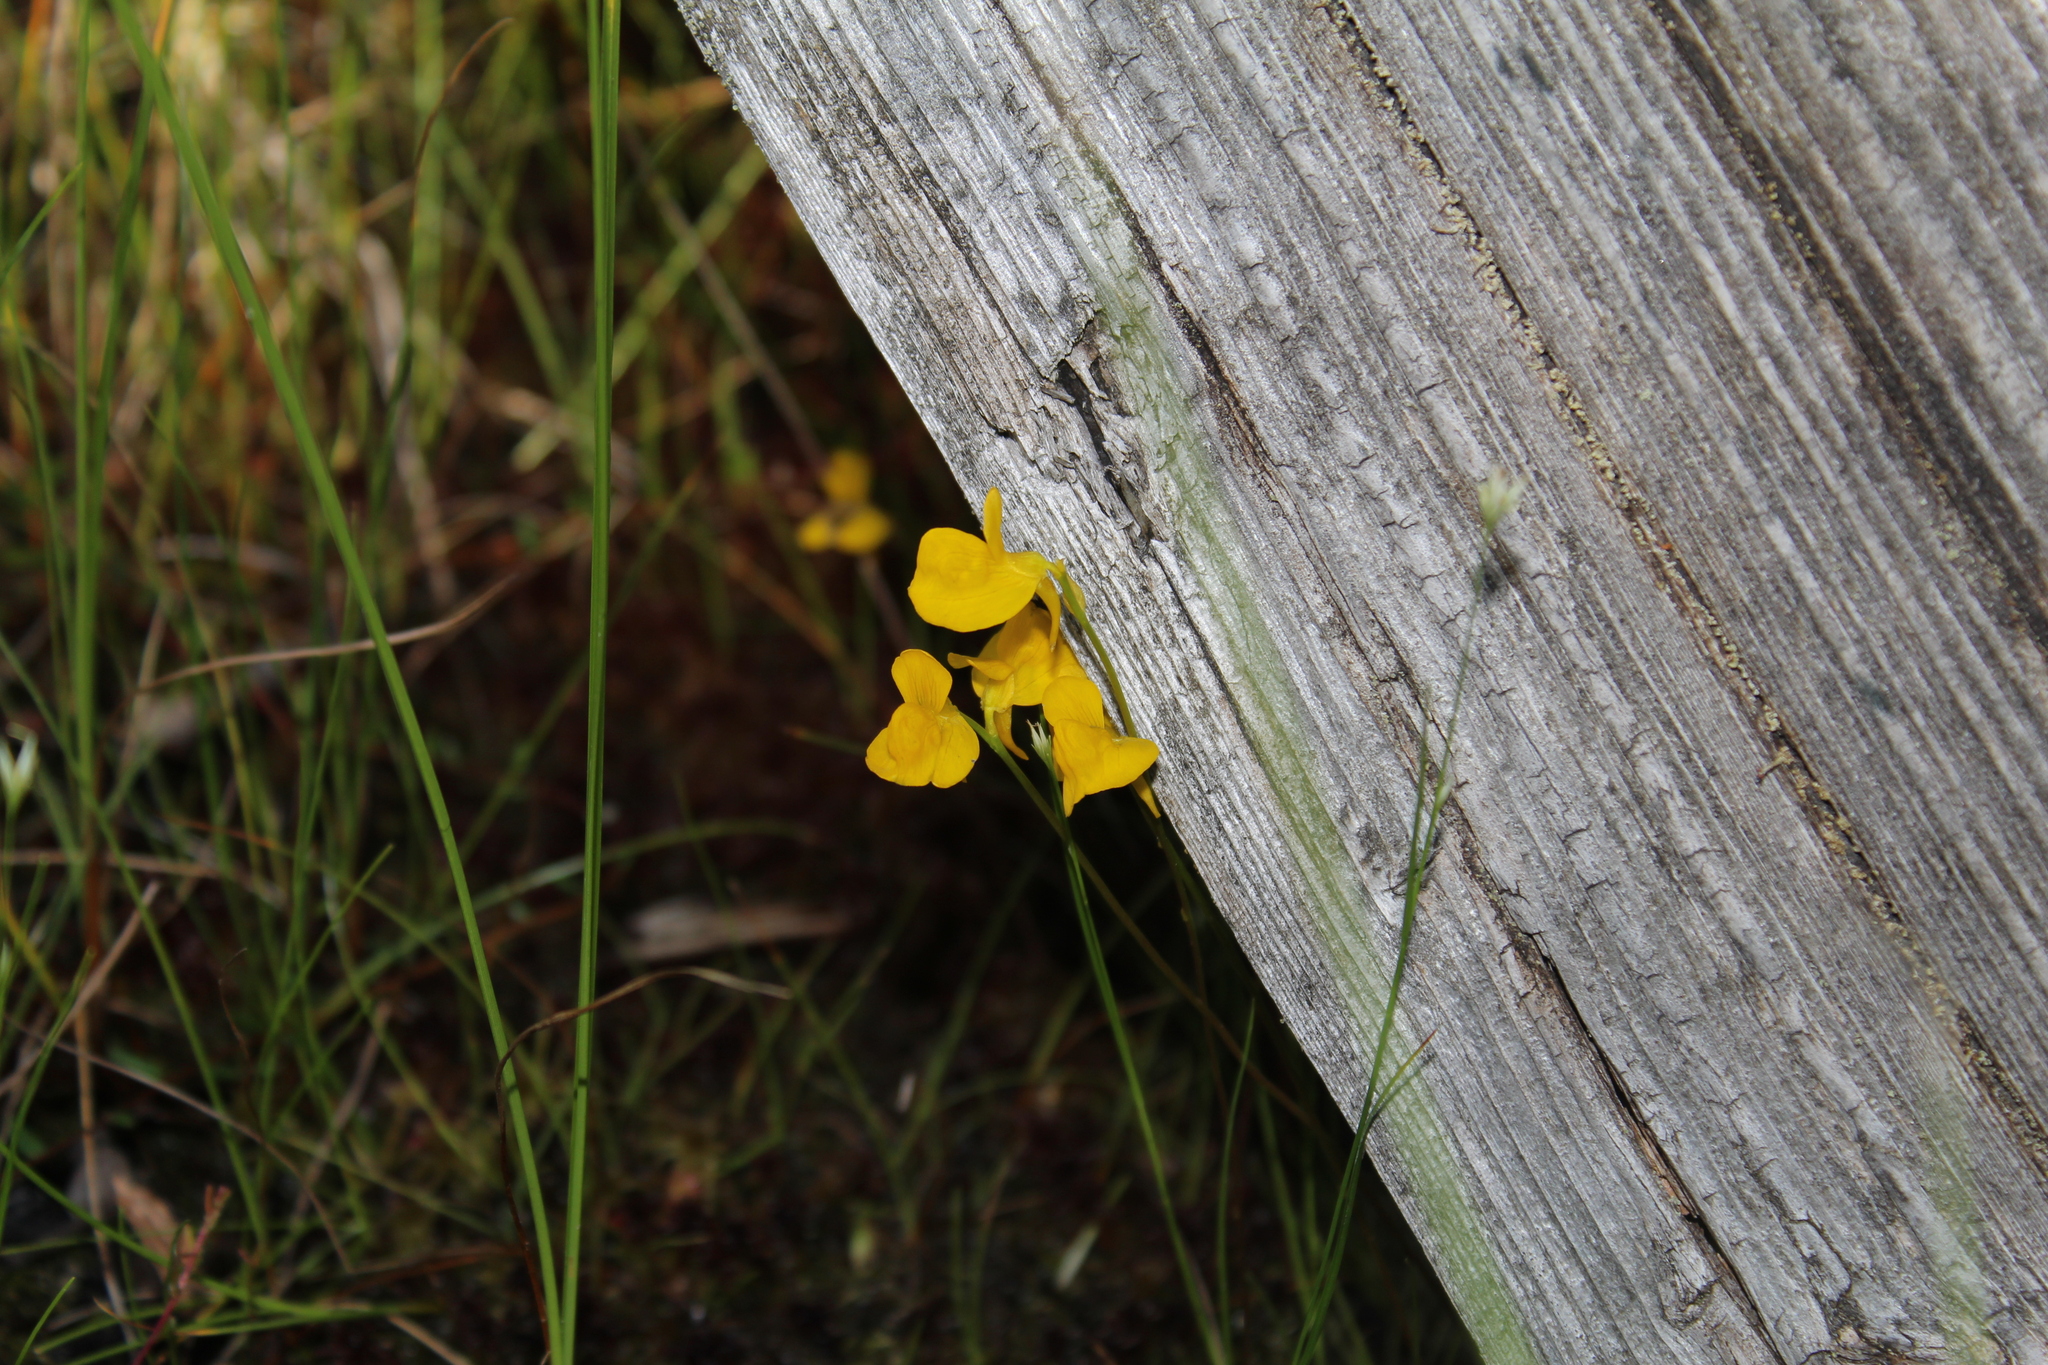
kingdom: Plantae
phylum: Tracheophyta
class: Magnoliopsida
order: Lamiales
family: Lentibulariaceae
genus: Utricularia
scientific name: Utricularia cornuta
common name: Horned bladderwort
